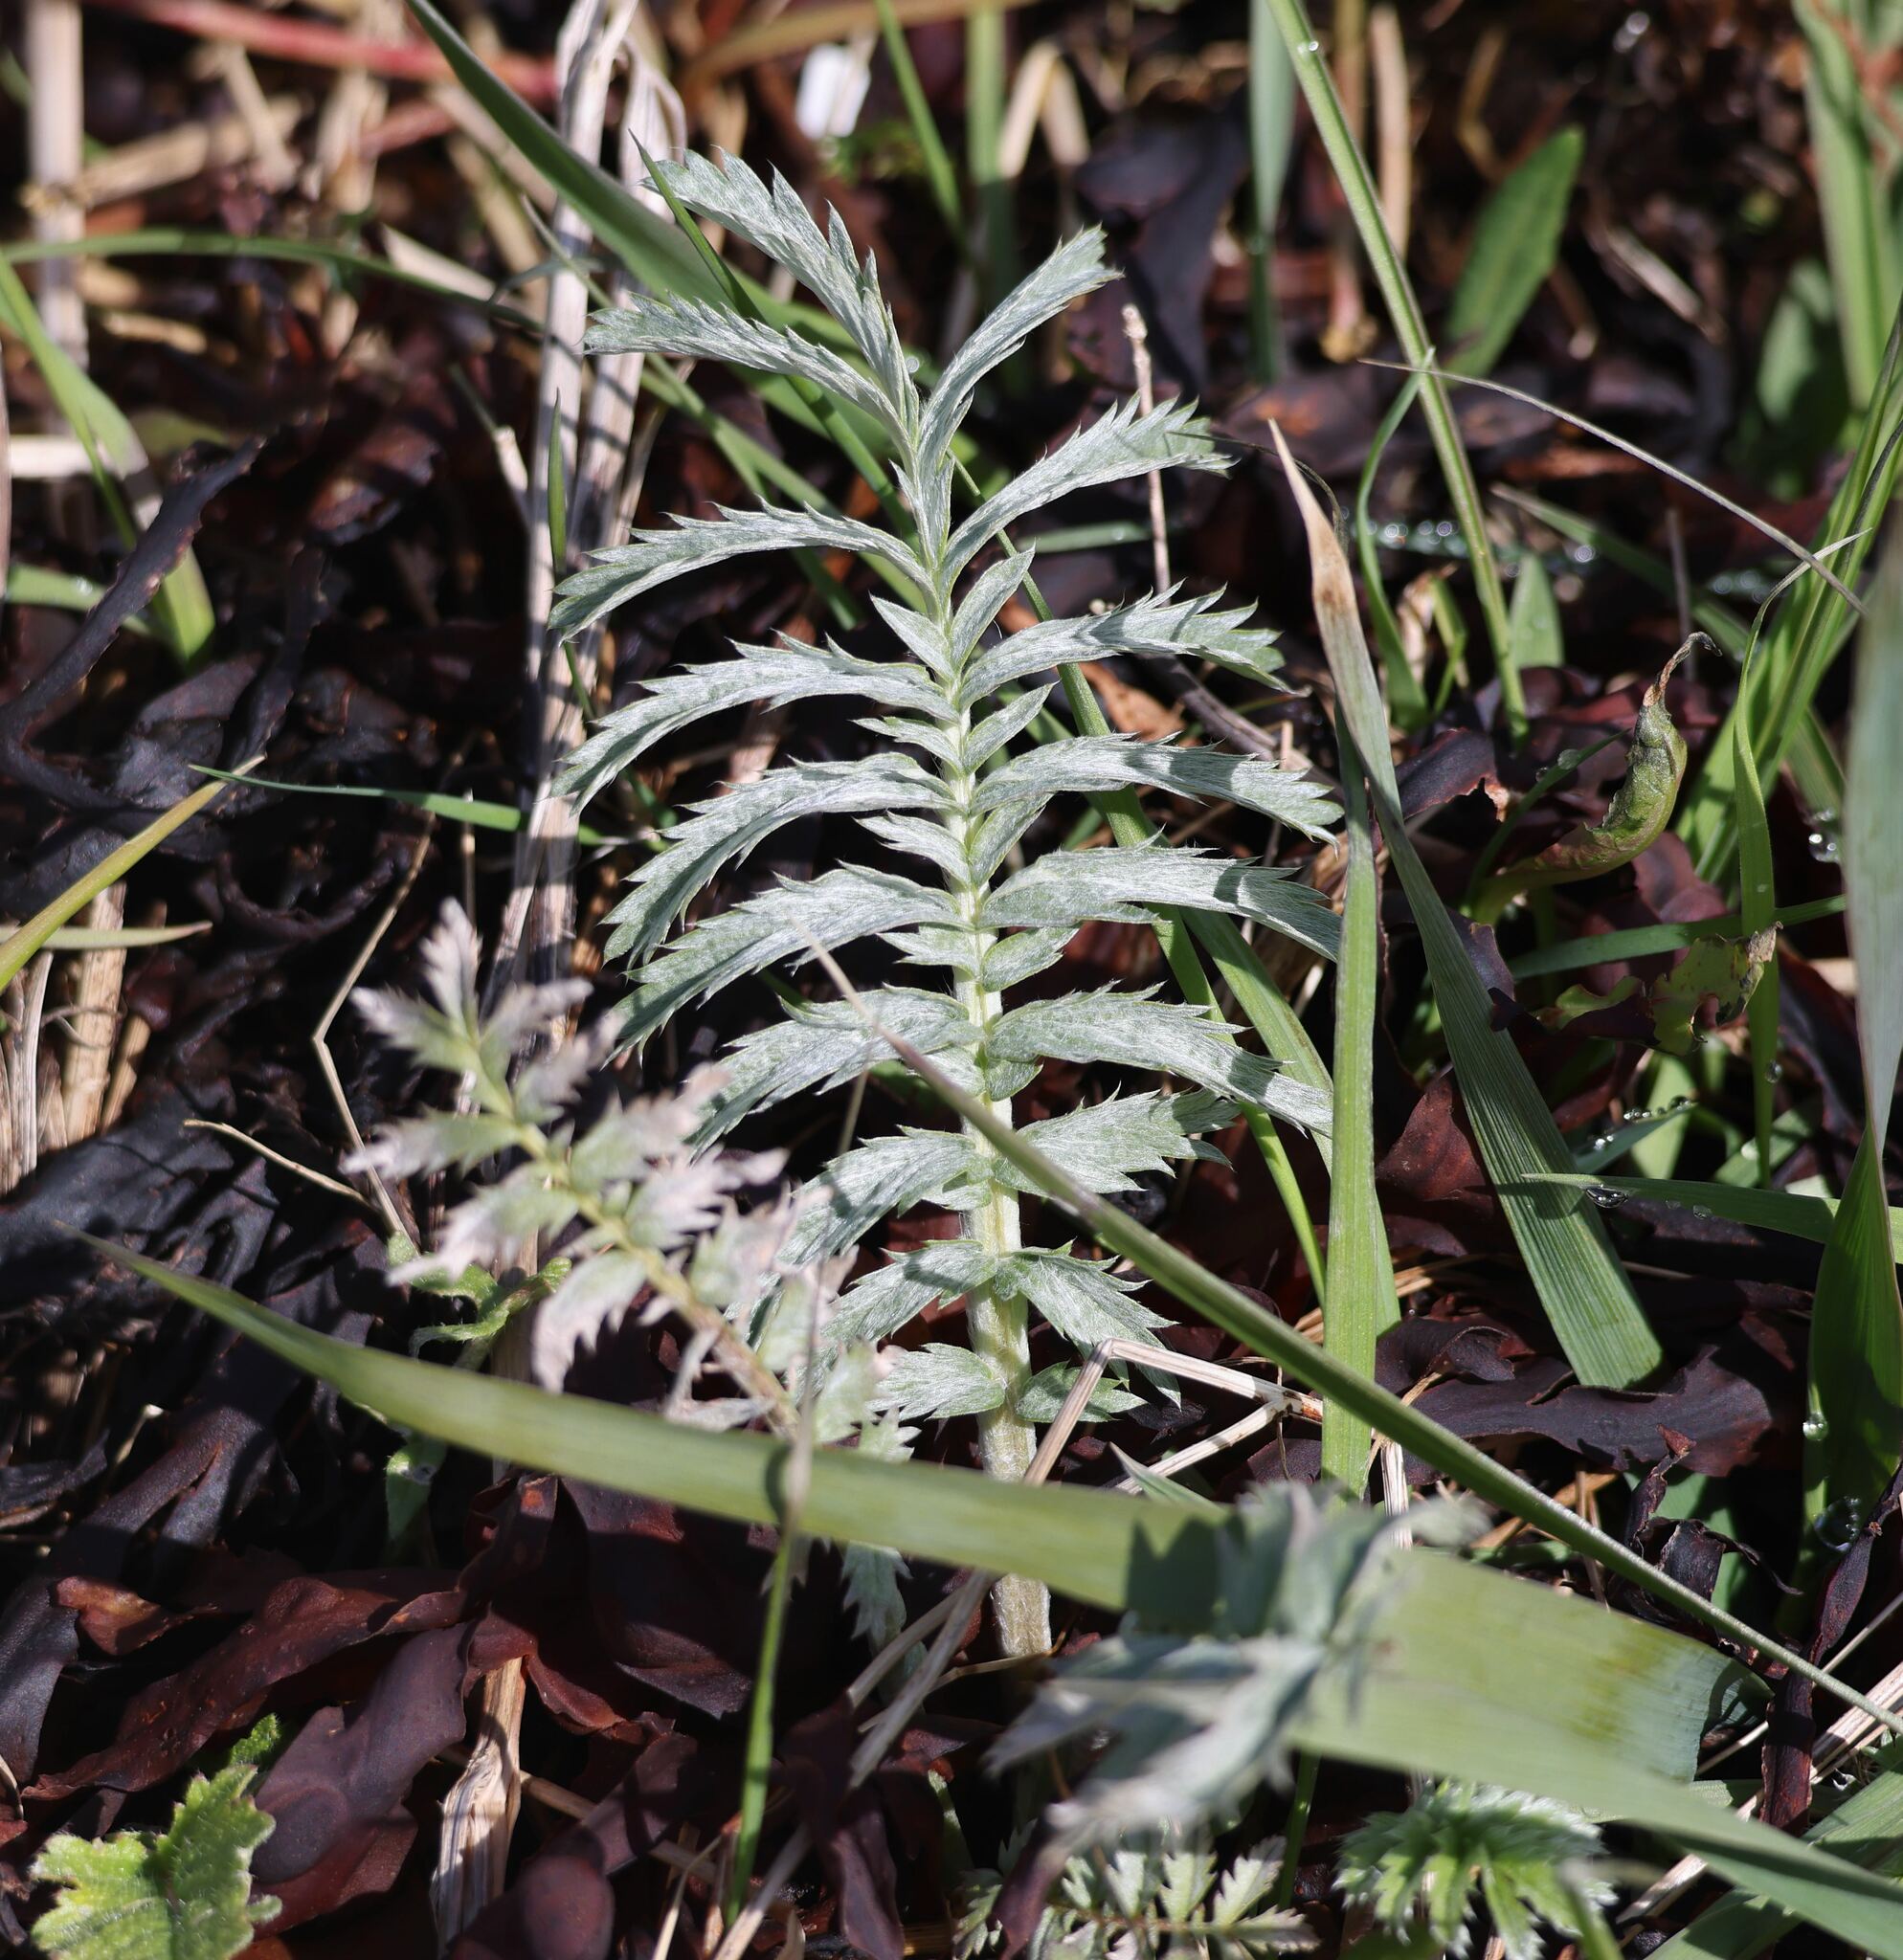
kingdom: Plantae
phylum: Tracheophyta
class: Magnoliopsida
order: Rosales
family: Rosaceae
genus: Argentina
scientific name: Argentina anserina
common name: Common silverweed
